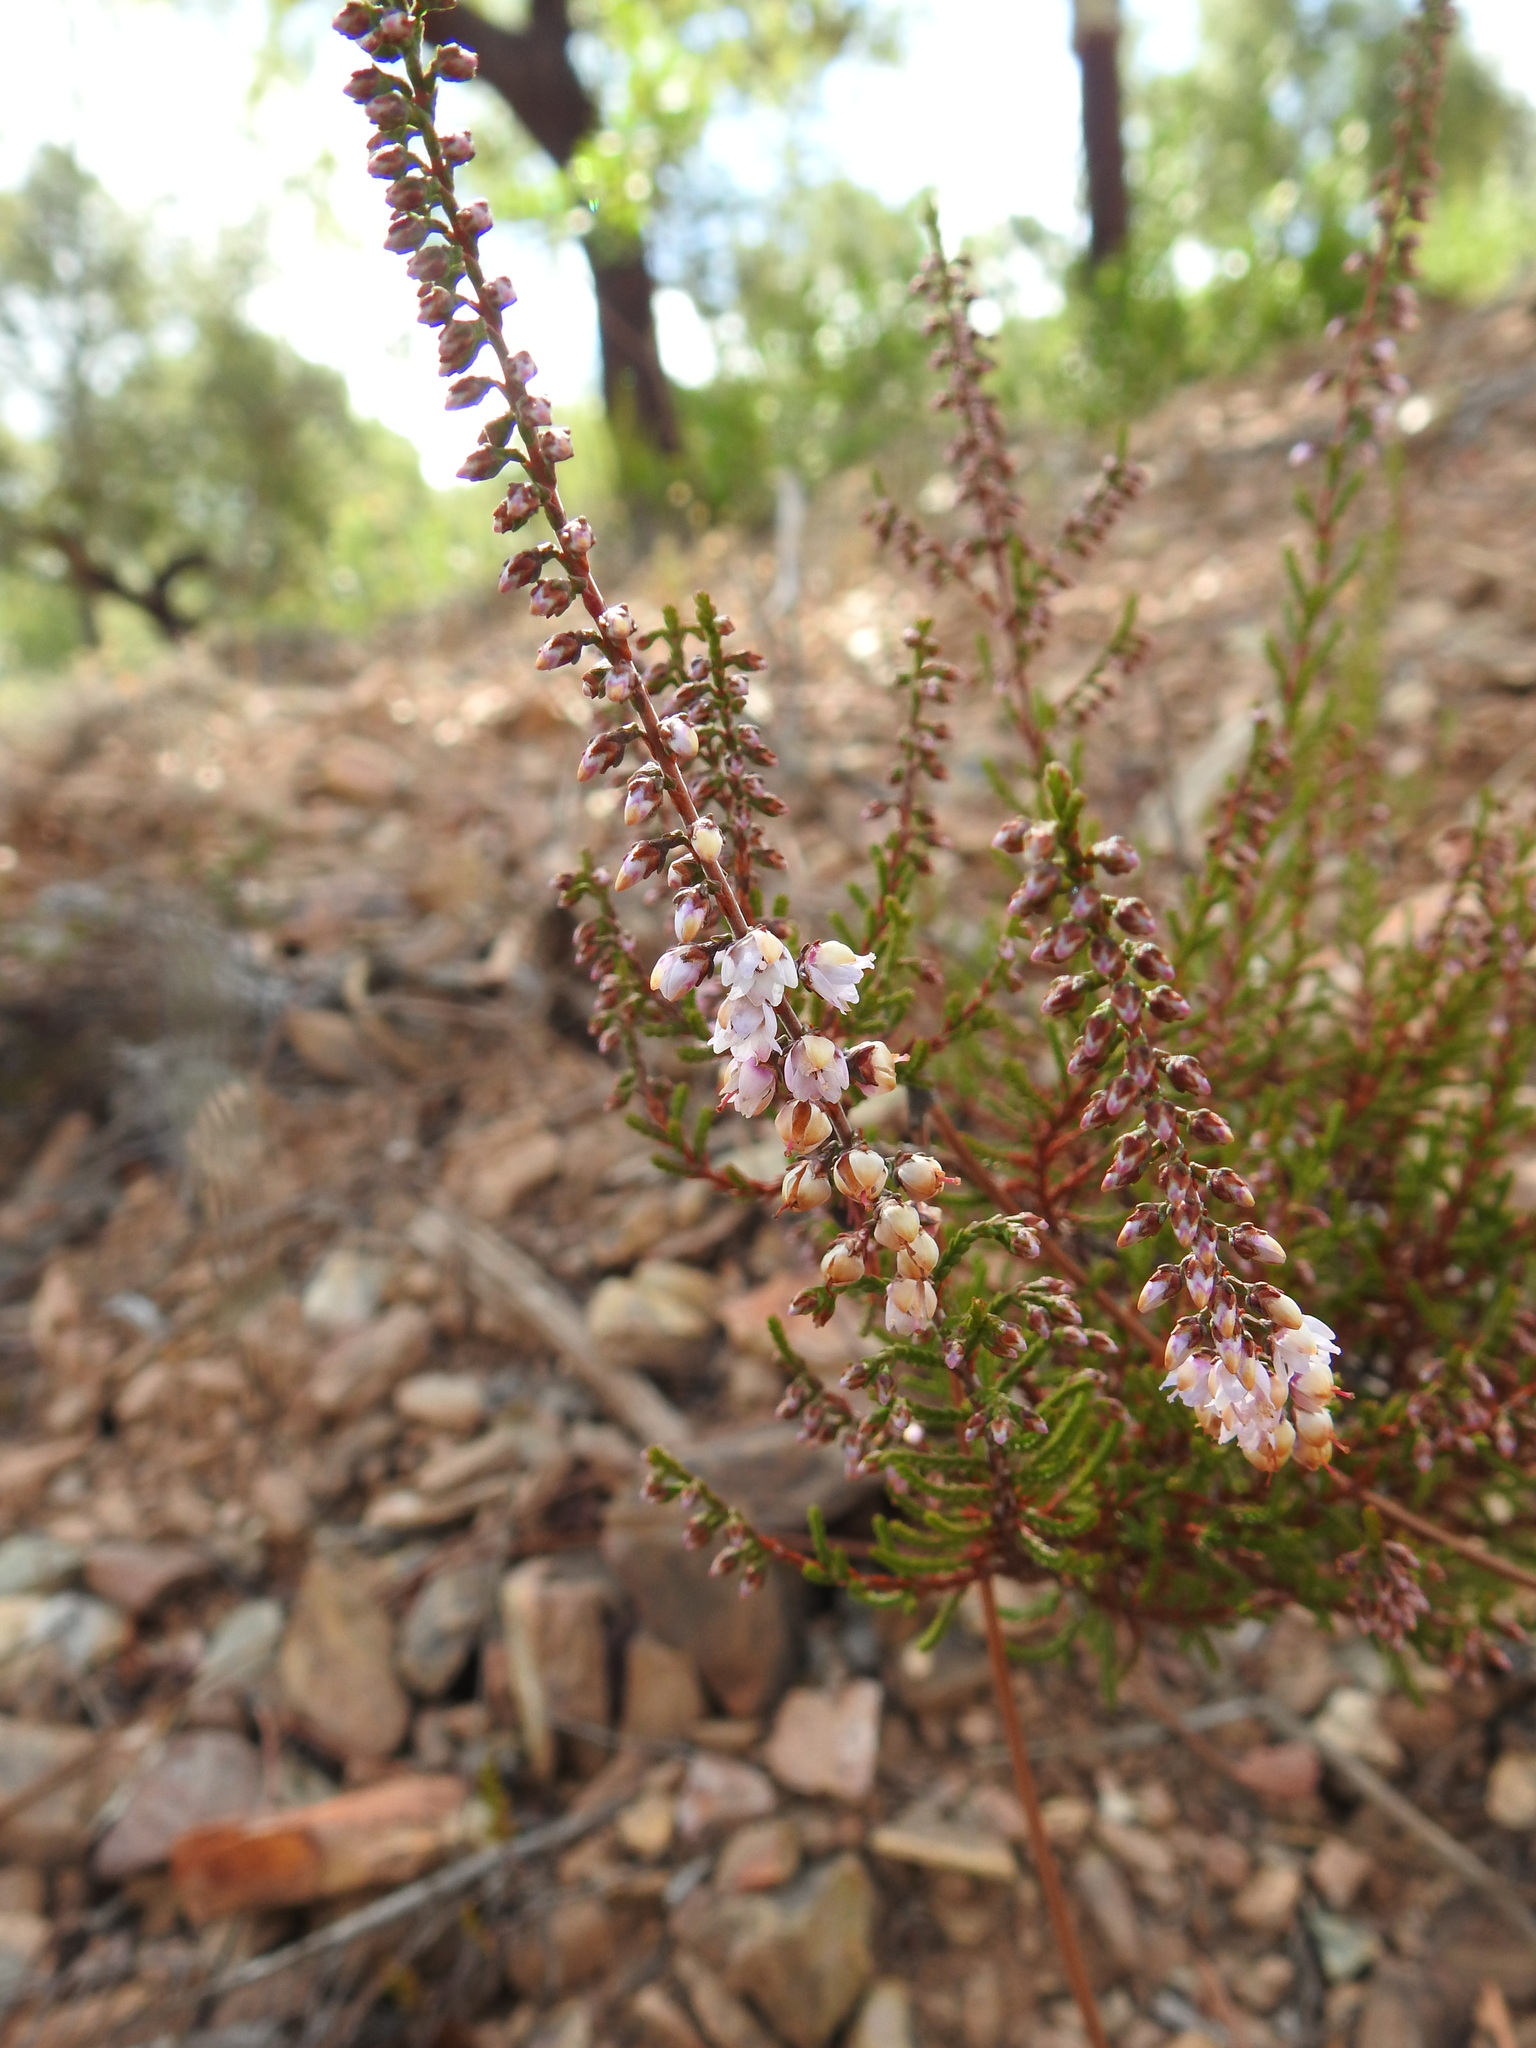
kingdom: Plantae
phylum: Tracheophyta
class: Magnoliopsida
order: Ericales
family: Ericaceae
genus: Calluna
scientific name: Calluna vulgaris
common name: Heather
